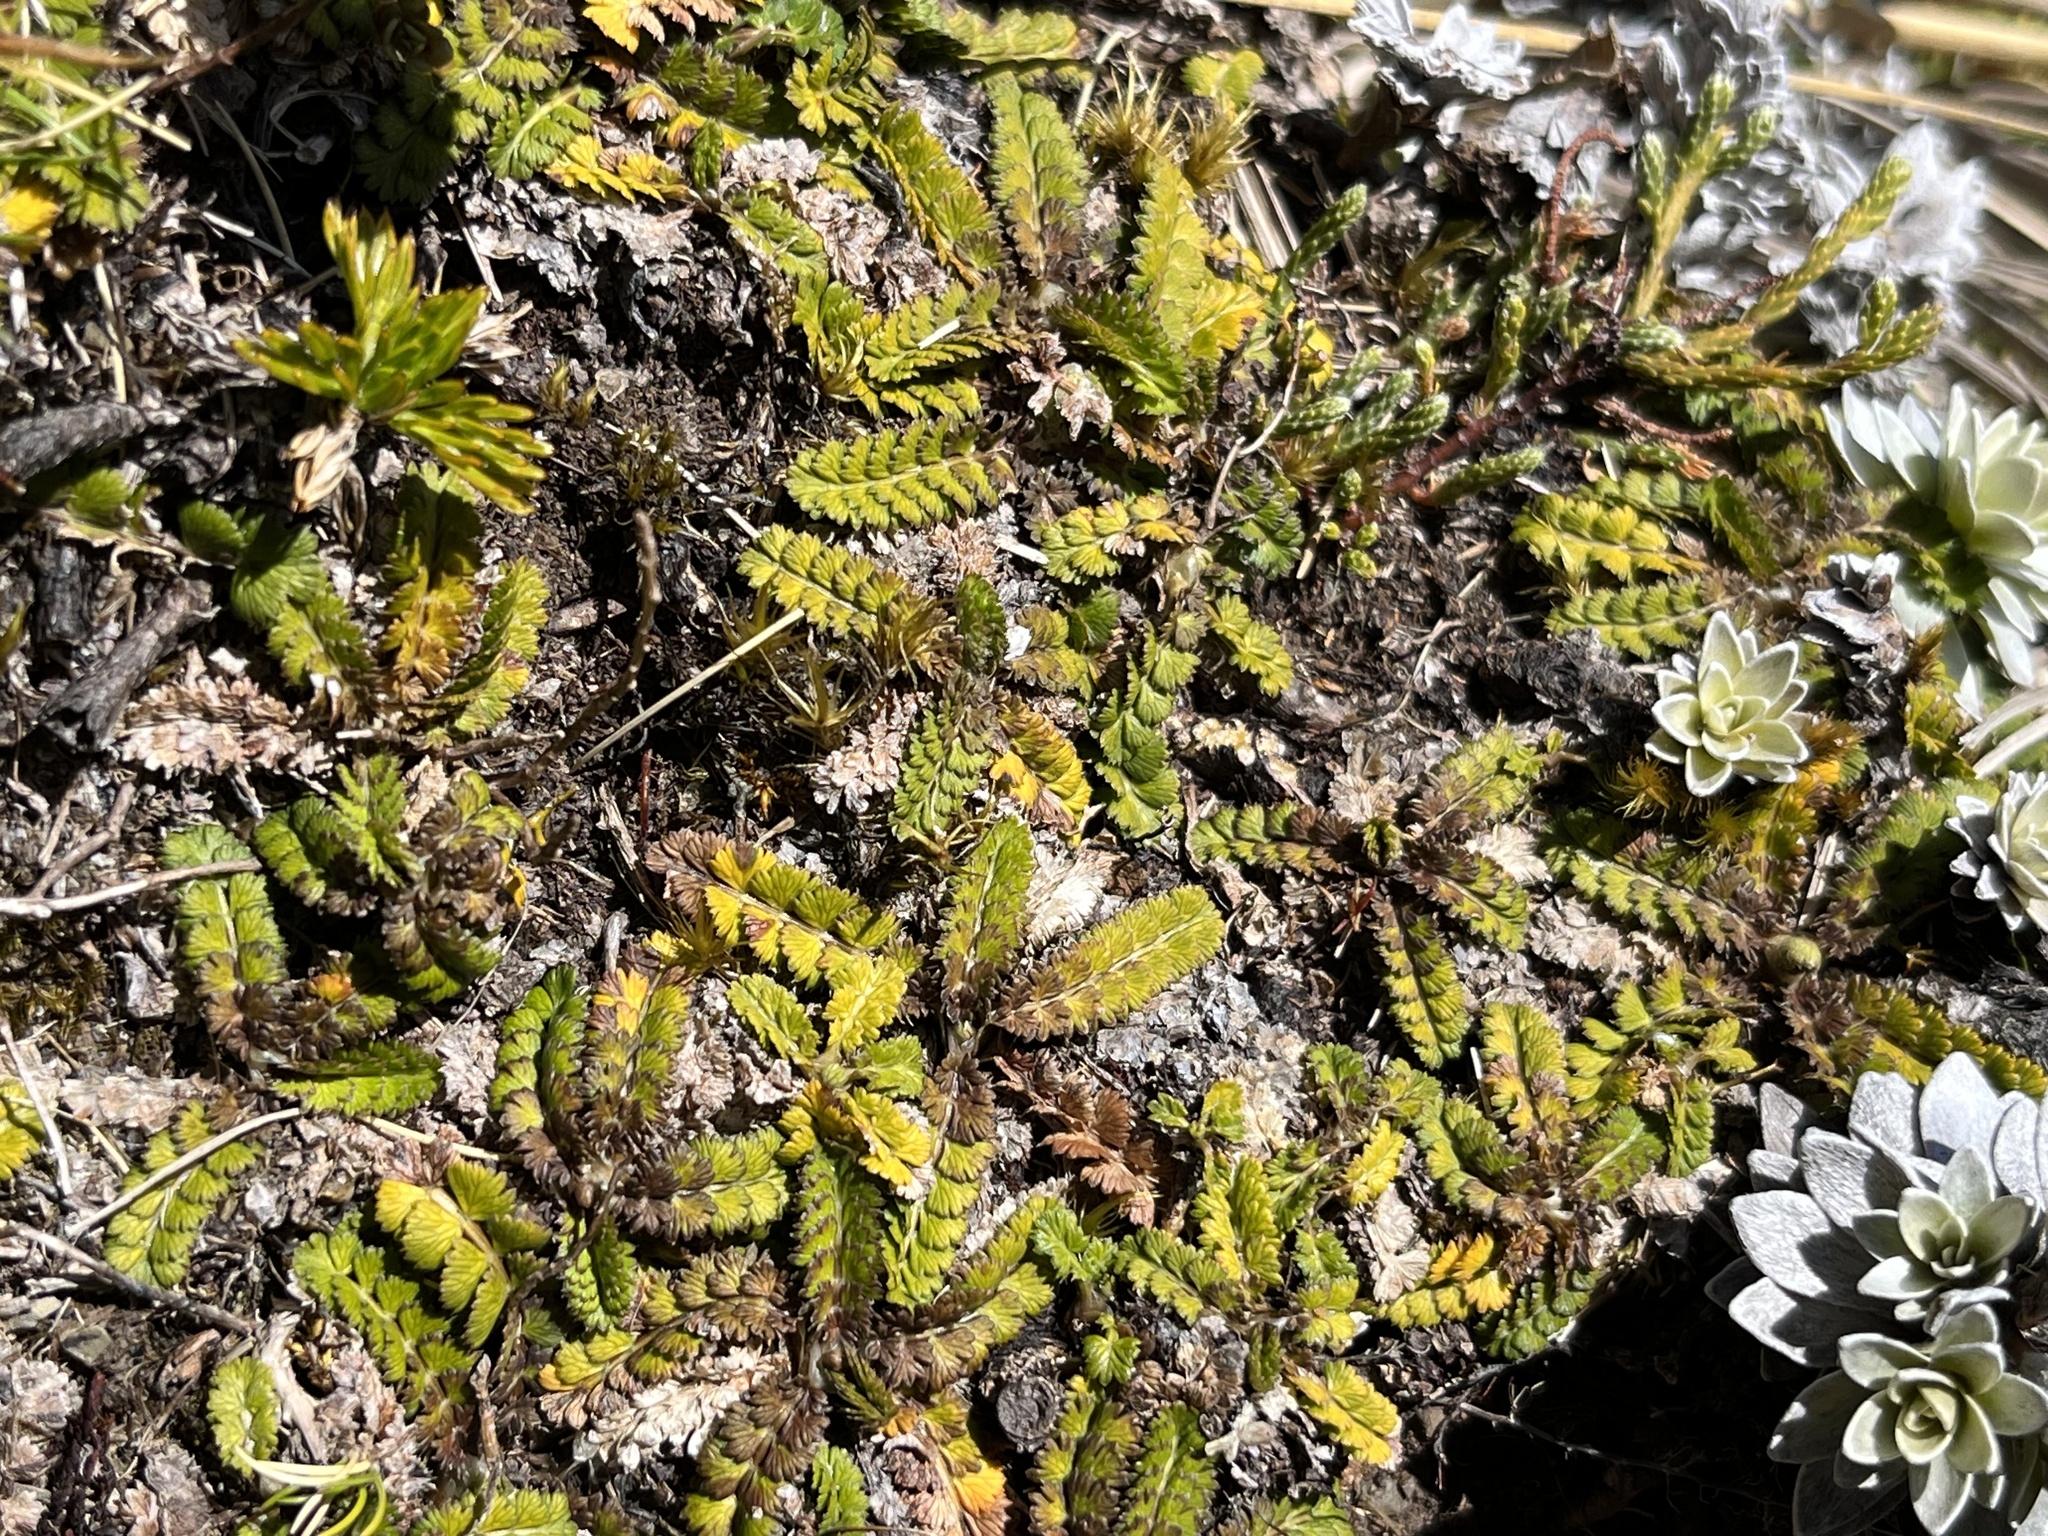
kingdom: Plantae
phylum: Tracheophyta
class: Magnoliopsida
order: Apiales
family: Apiaceae
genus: Anisotome
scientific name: Anisotome aromatica
